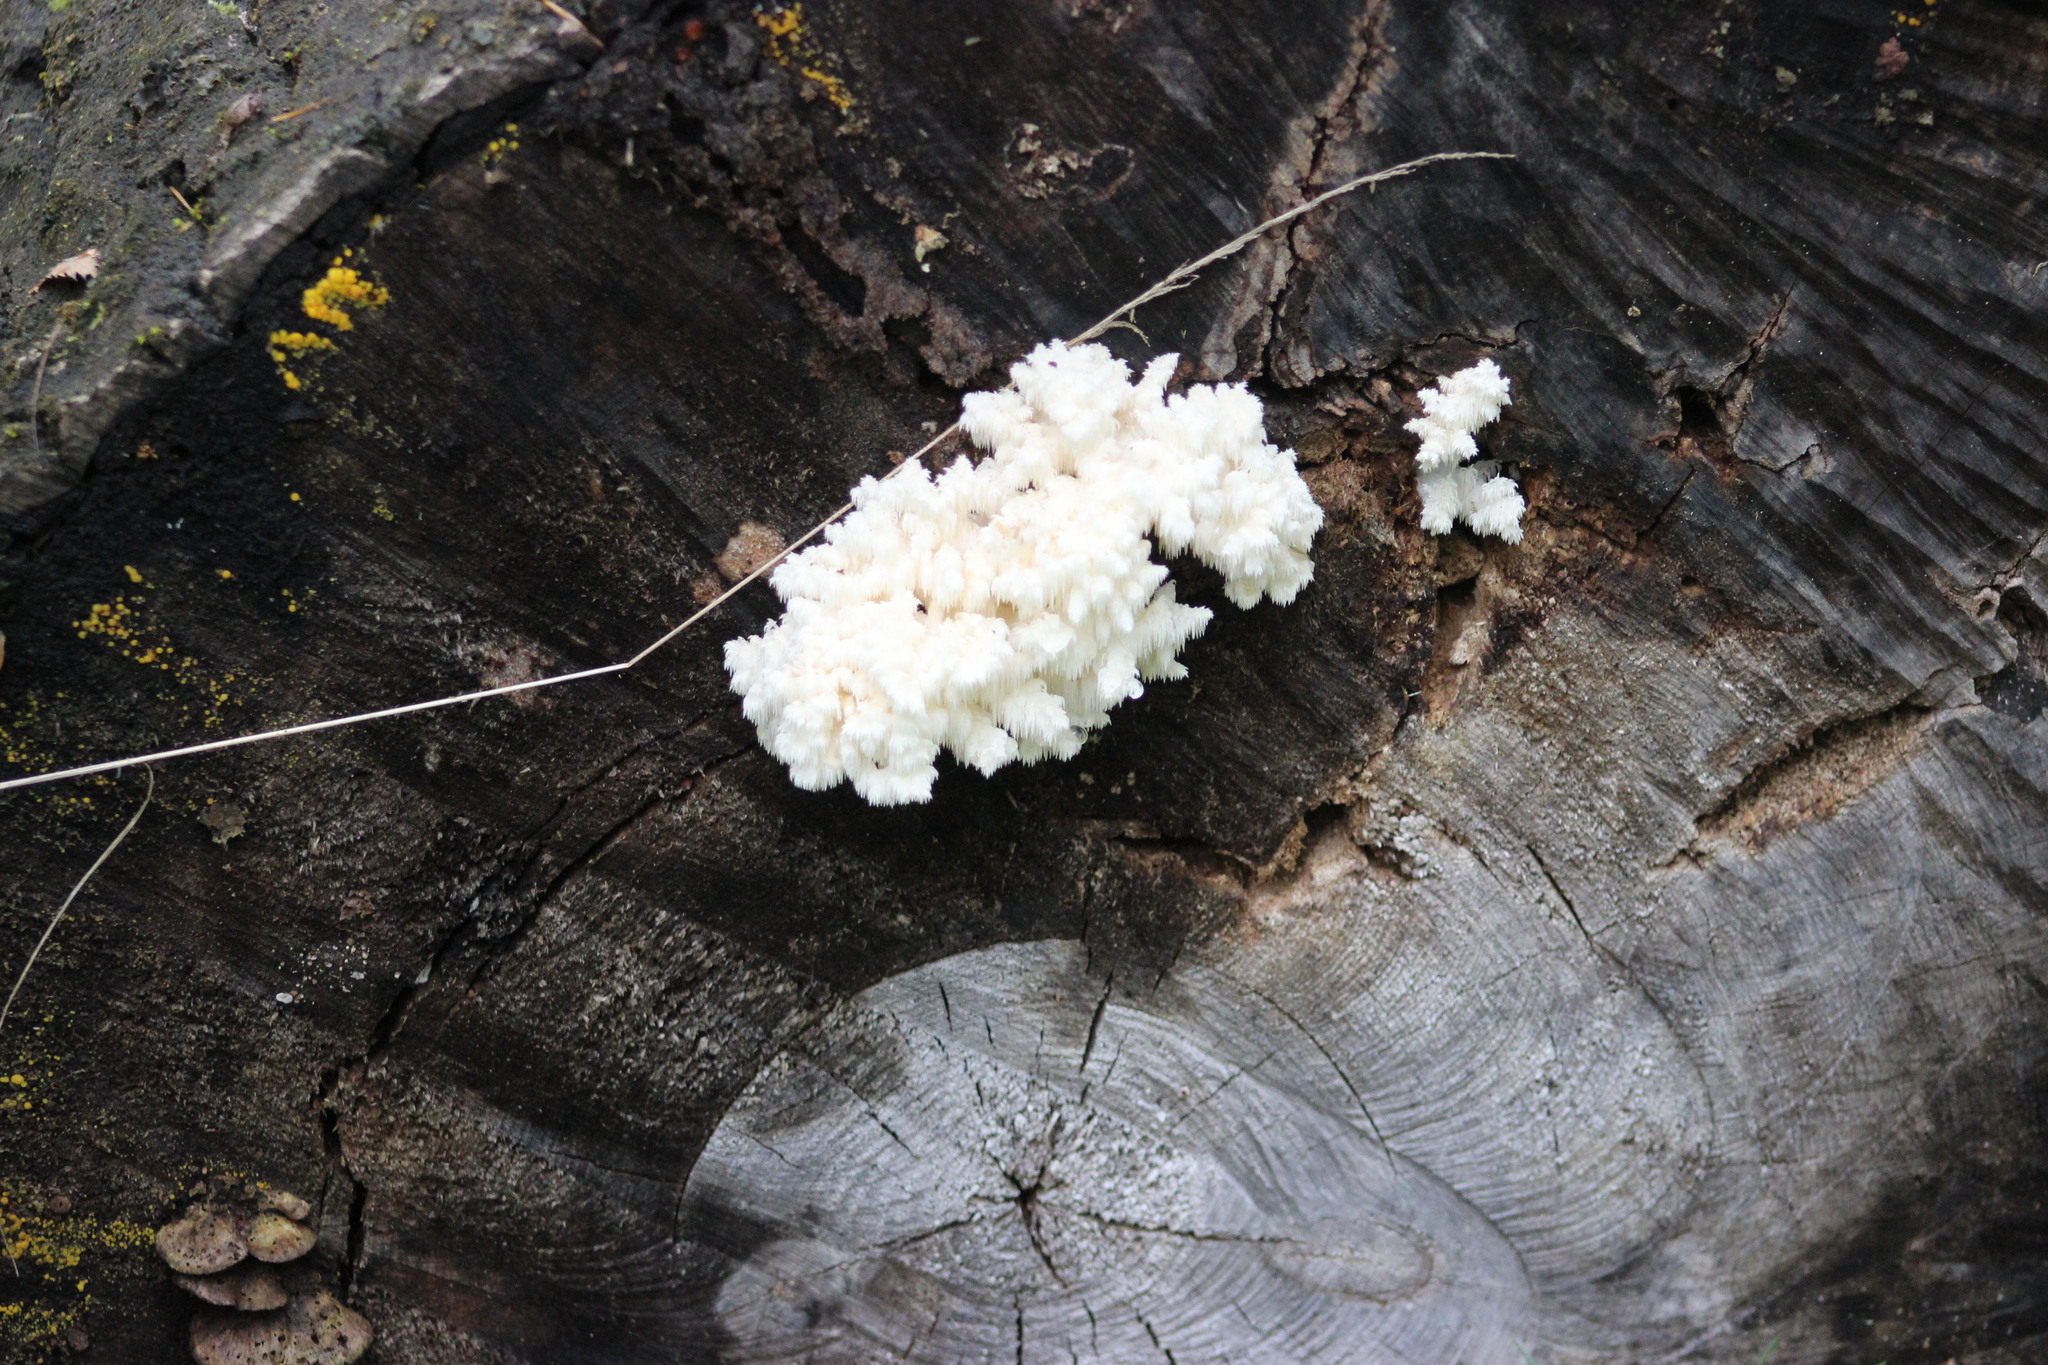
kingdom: Fungi
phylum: Basidiomycota
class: Agaricomycetes
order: Russulales
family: Hericiaceae
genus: Hericium
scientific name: Hericium coralloides
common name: Coral tooth
